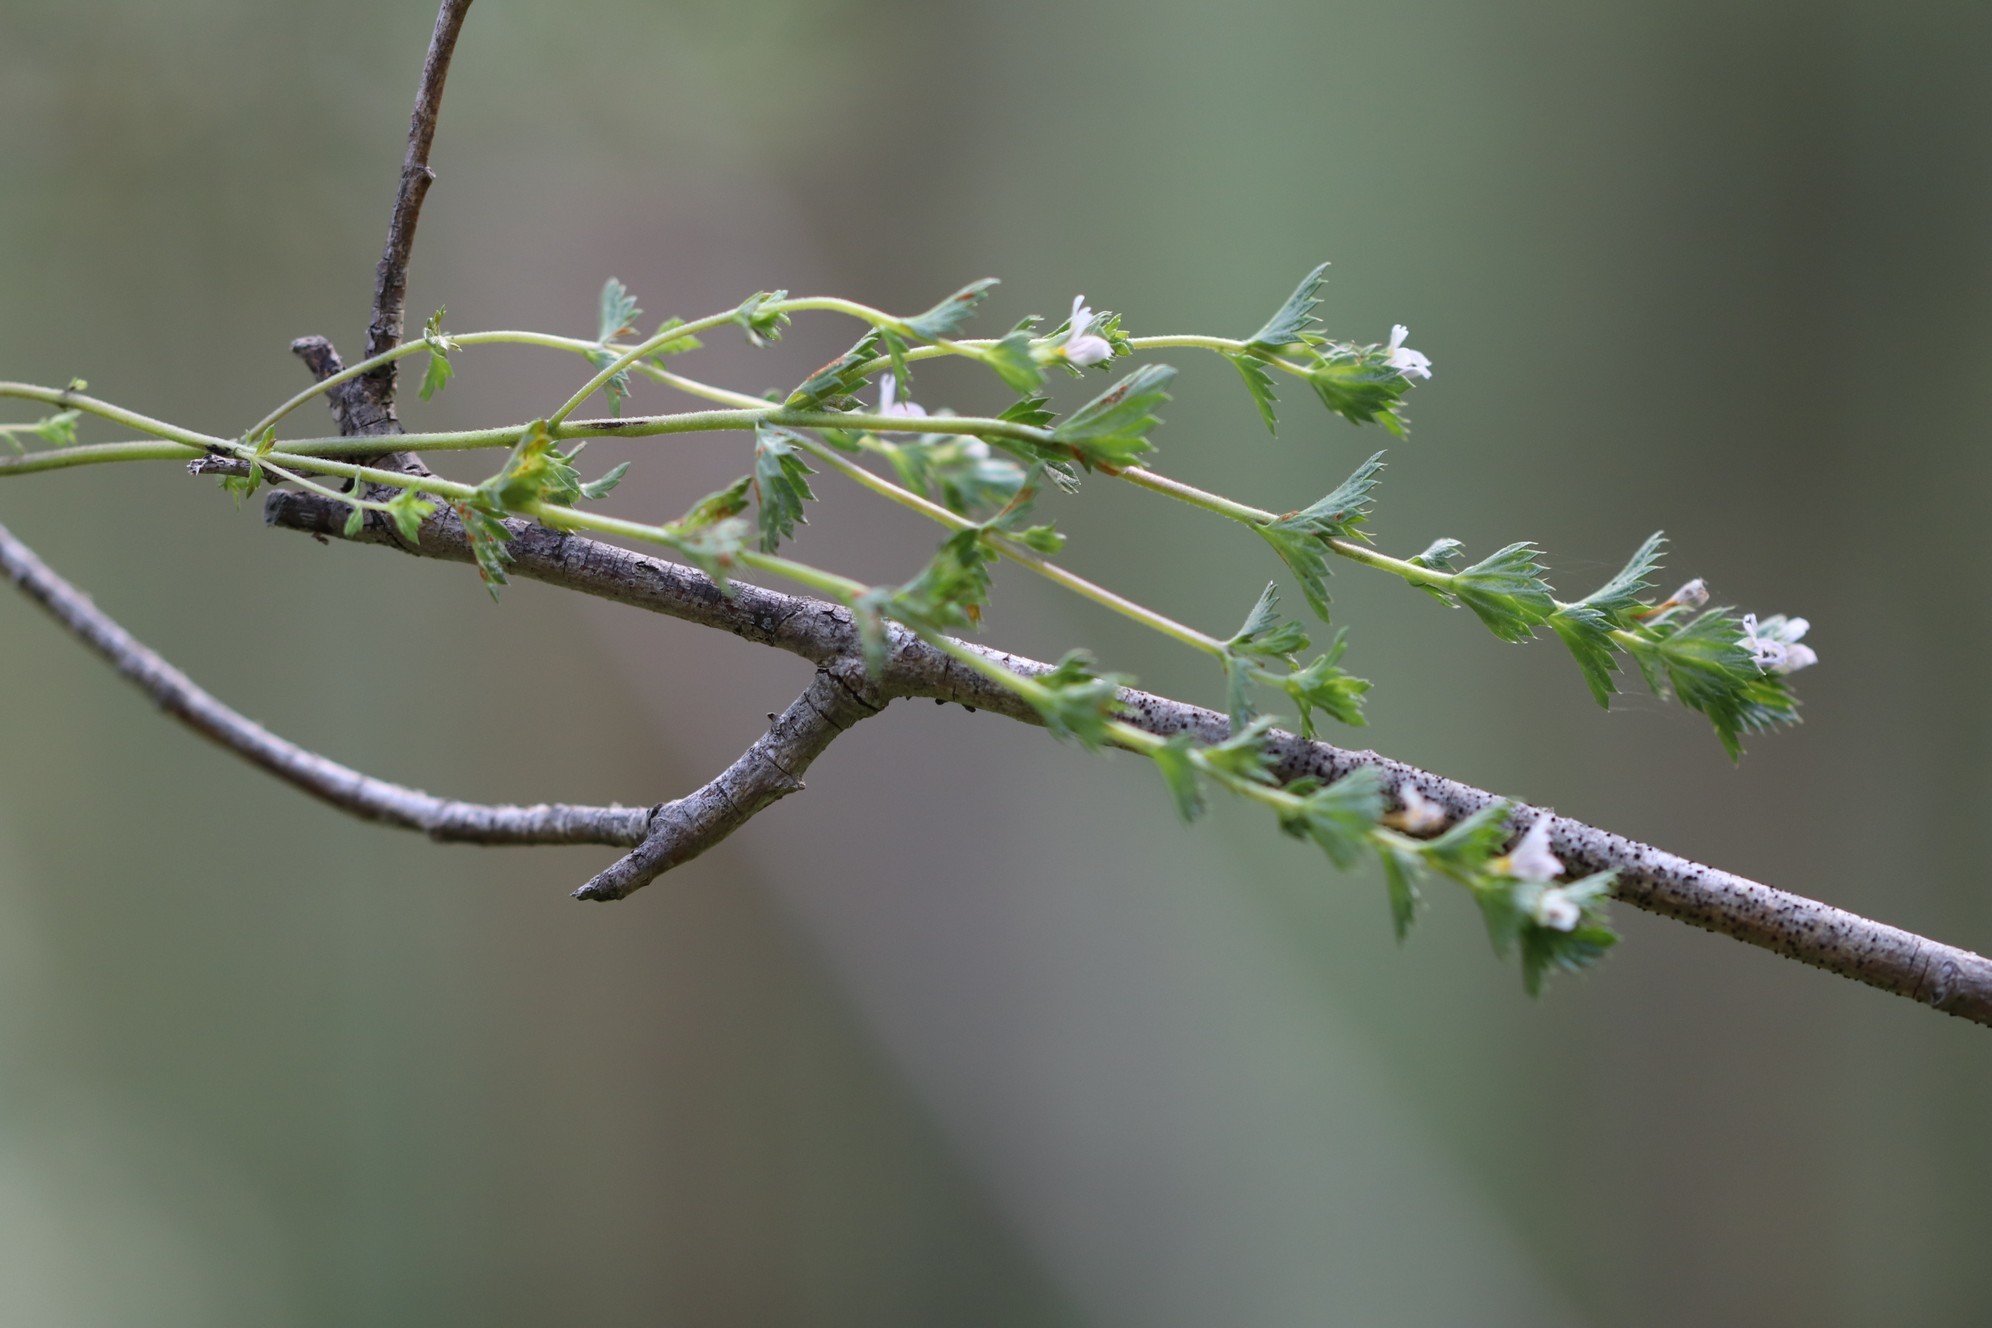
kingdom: Plantae
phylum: Tracheophyta
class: Magnoliopsida
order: Lamiales
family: Orobanchaceae
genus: Euphrasia
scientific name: Euphrasia stricta
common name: Drug eyebright
